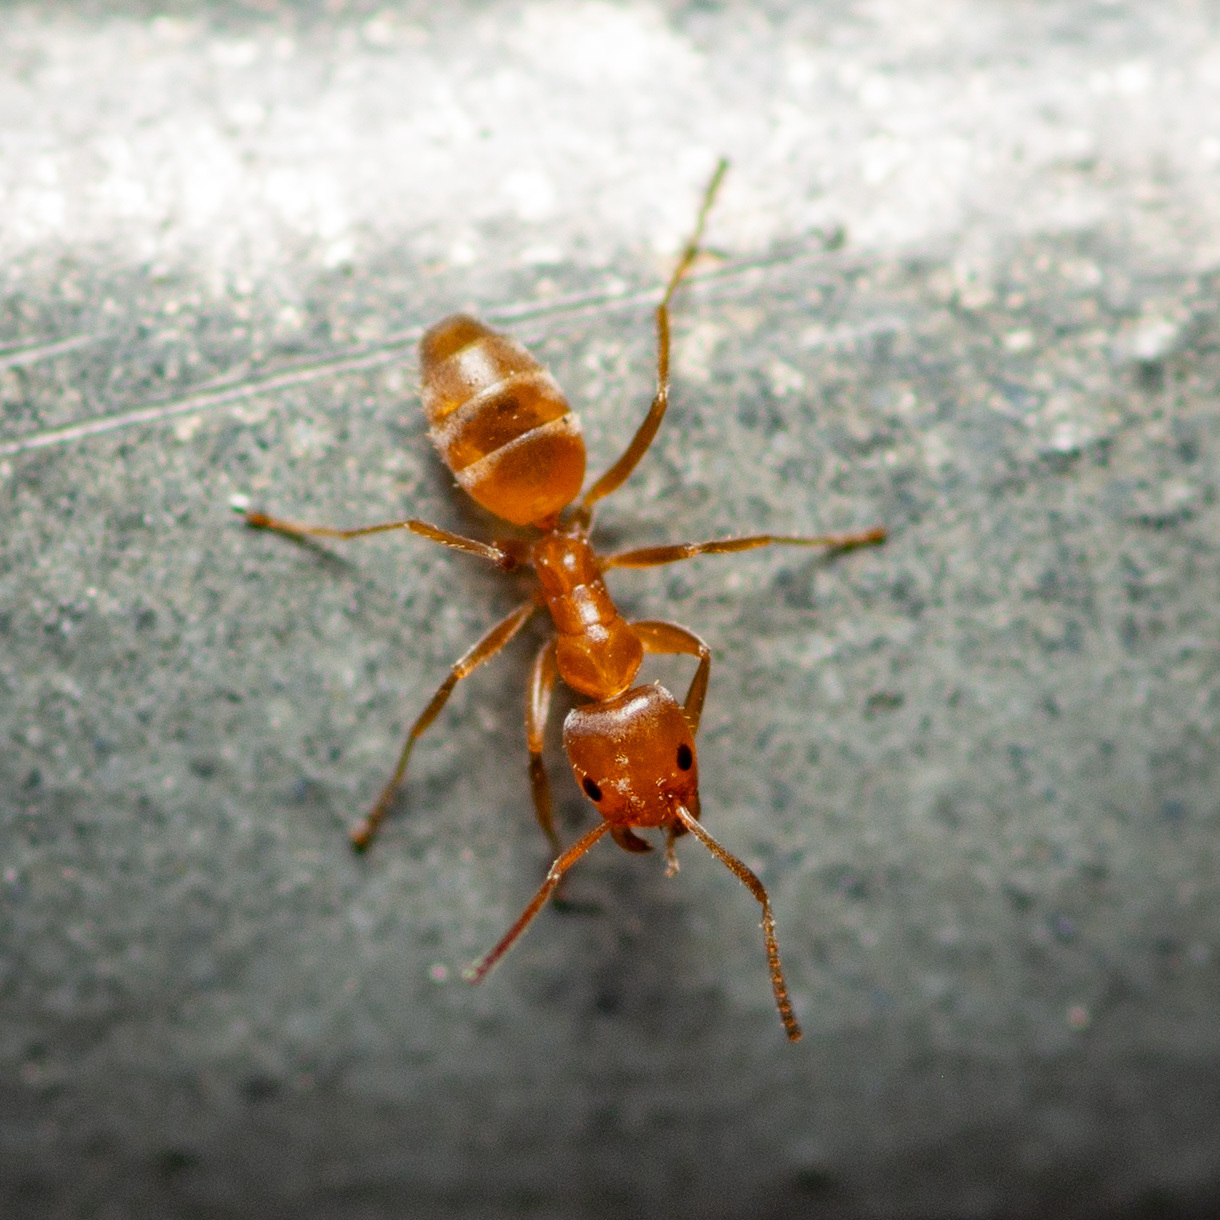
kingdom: Animalia
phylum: Arthropoda
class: Insecta
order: Hymenoptera
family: Formicidae
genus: Forelius
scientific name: Forelius mccooki
